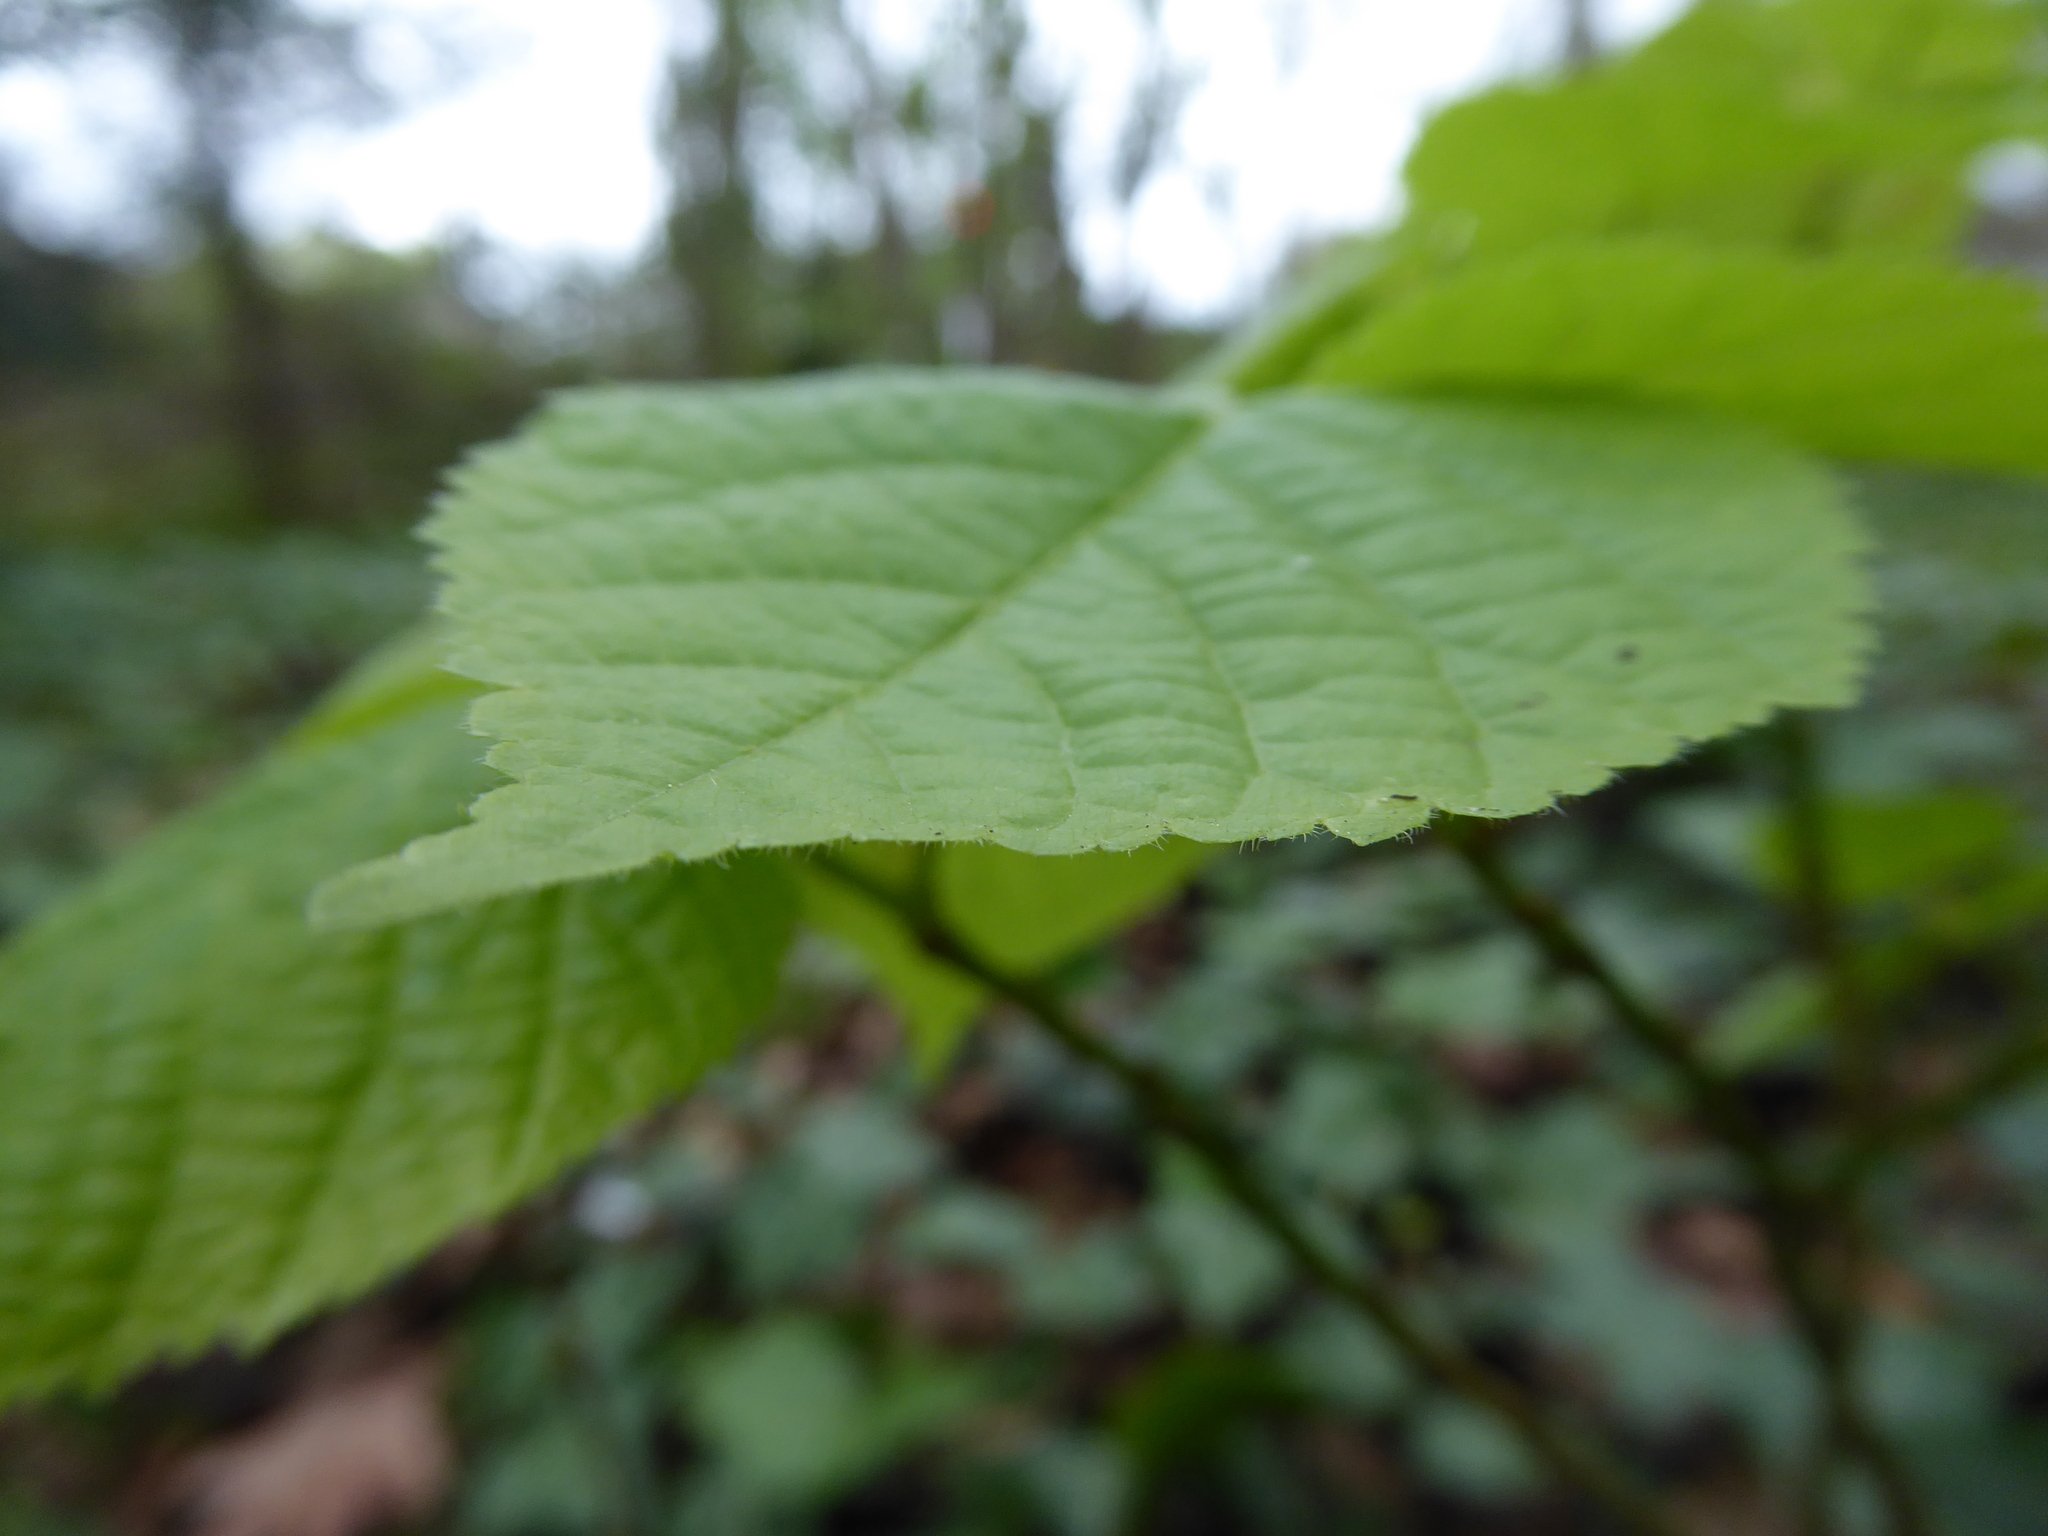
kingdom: Plantae
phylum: Tracheophyta
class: Magnoliopsida
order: Malvales
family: Malvaceae
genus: Tilia
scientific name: Tilia platyphyllos
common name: Large-leaved lime
